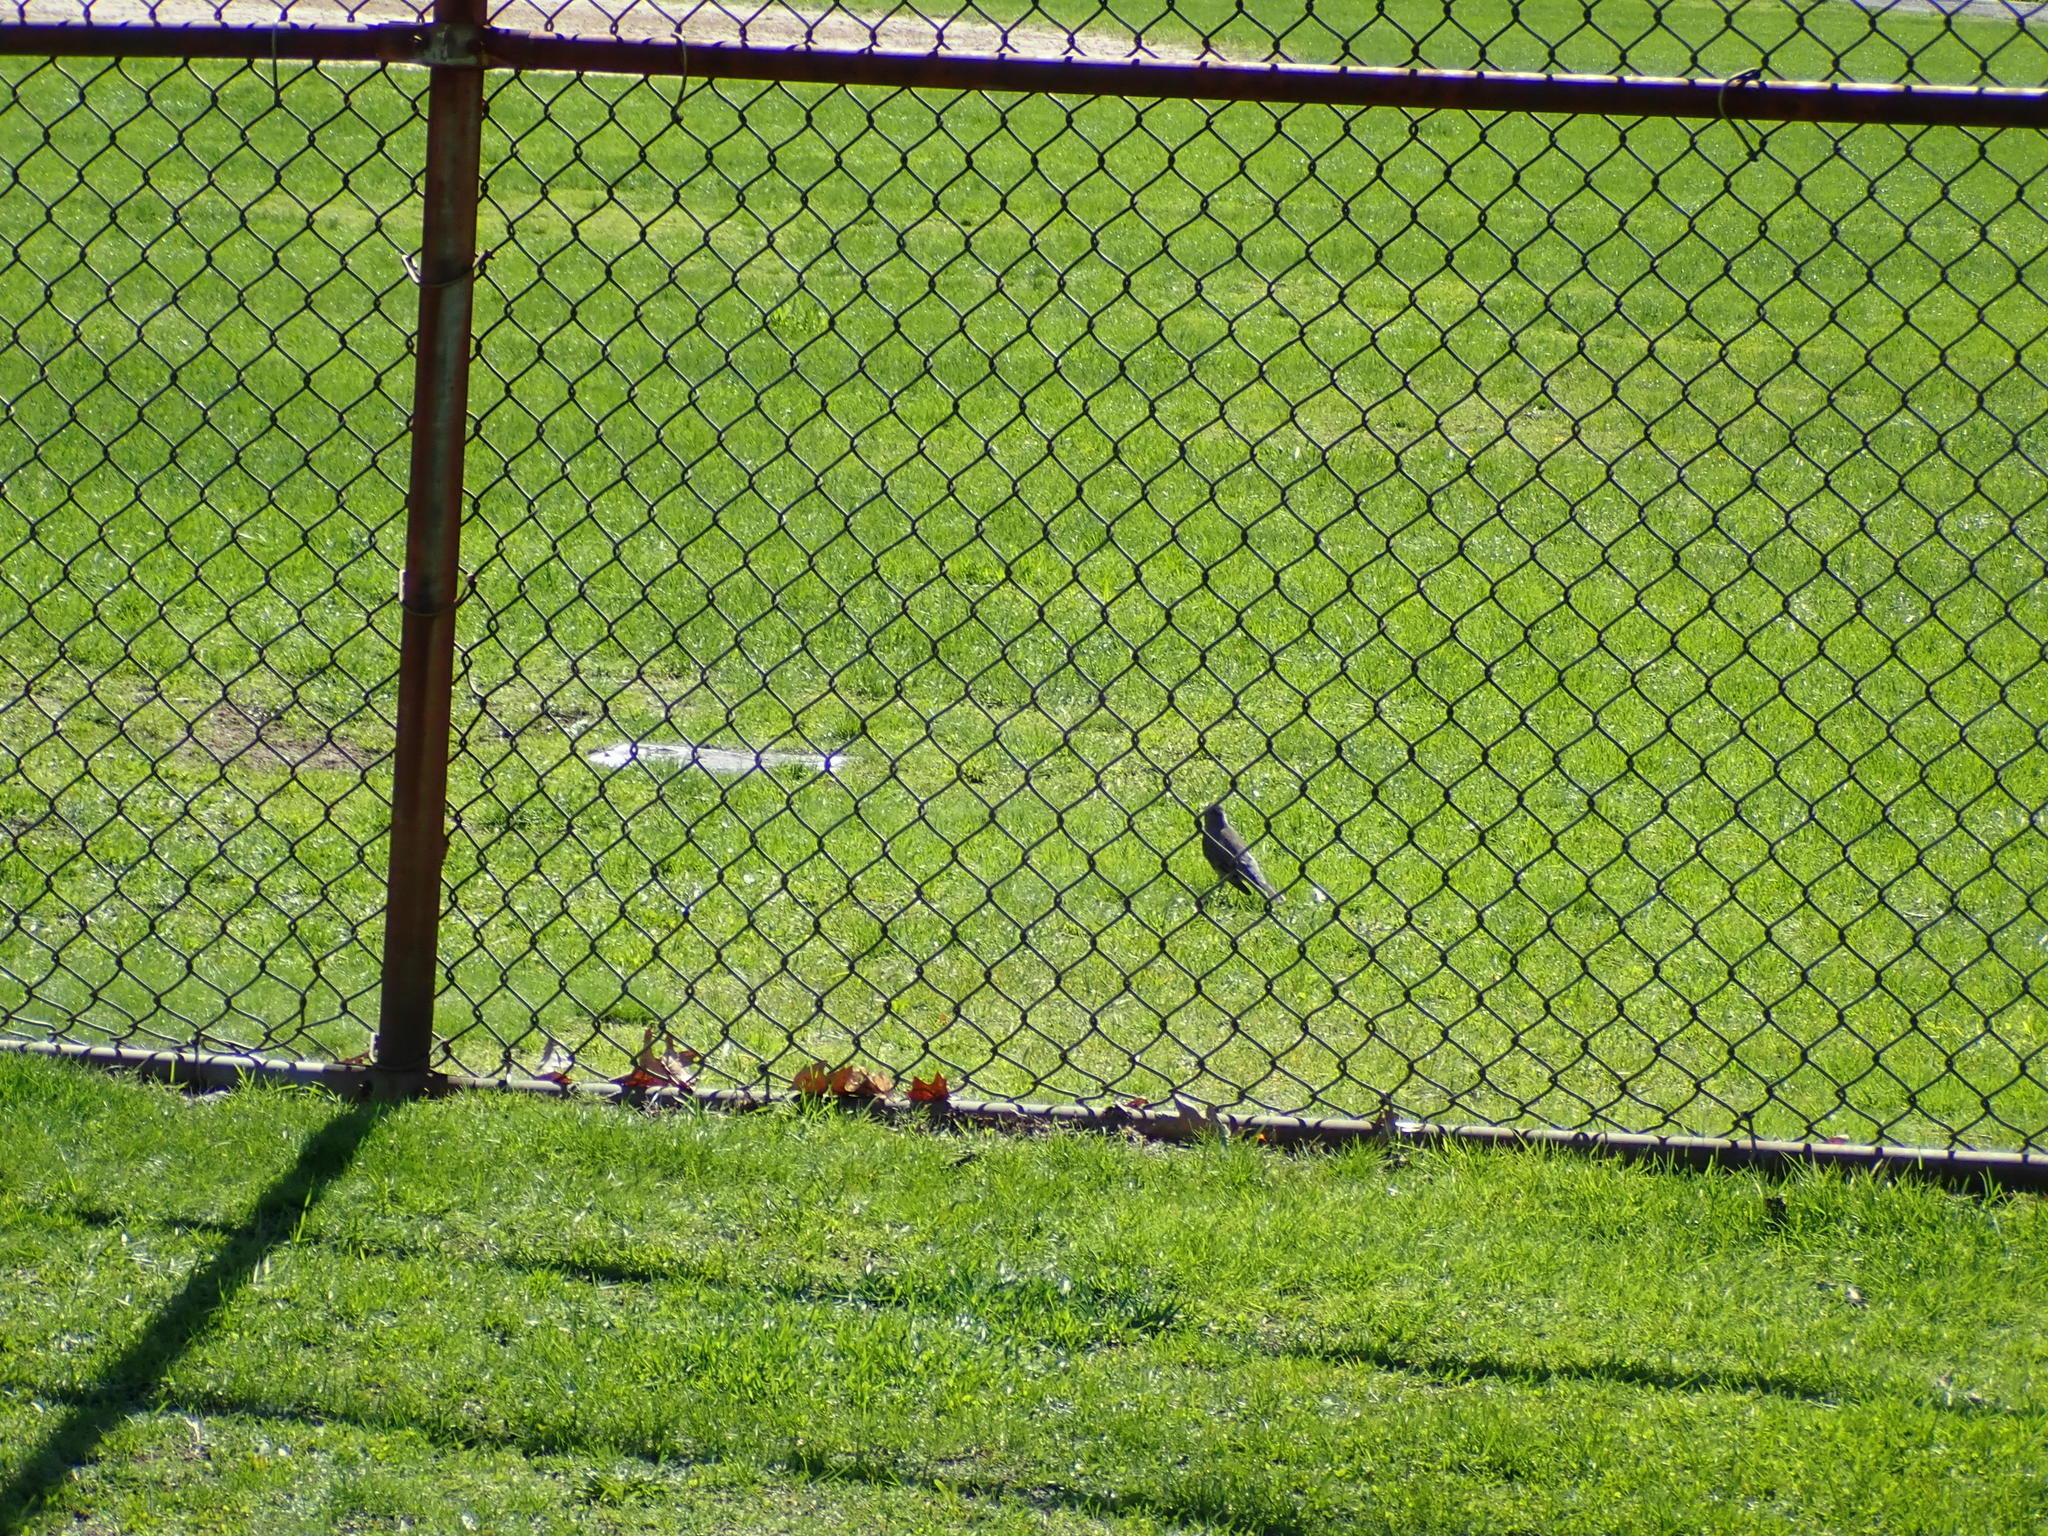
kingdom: Animalia
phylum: Chordata
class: Aves
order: Passeriformes
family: Turdidae
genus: Turdus
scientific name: Turdus migratorius
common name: American robin
